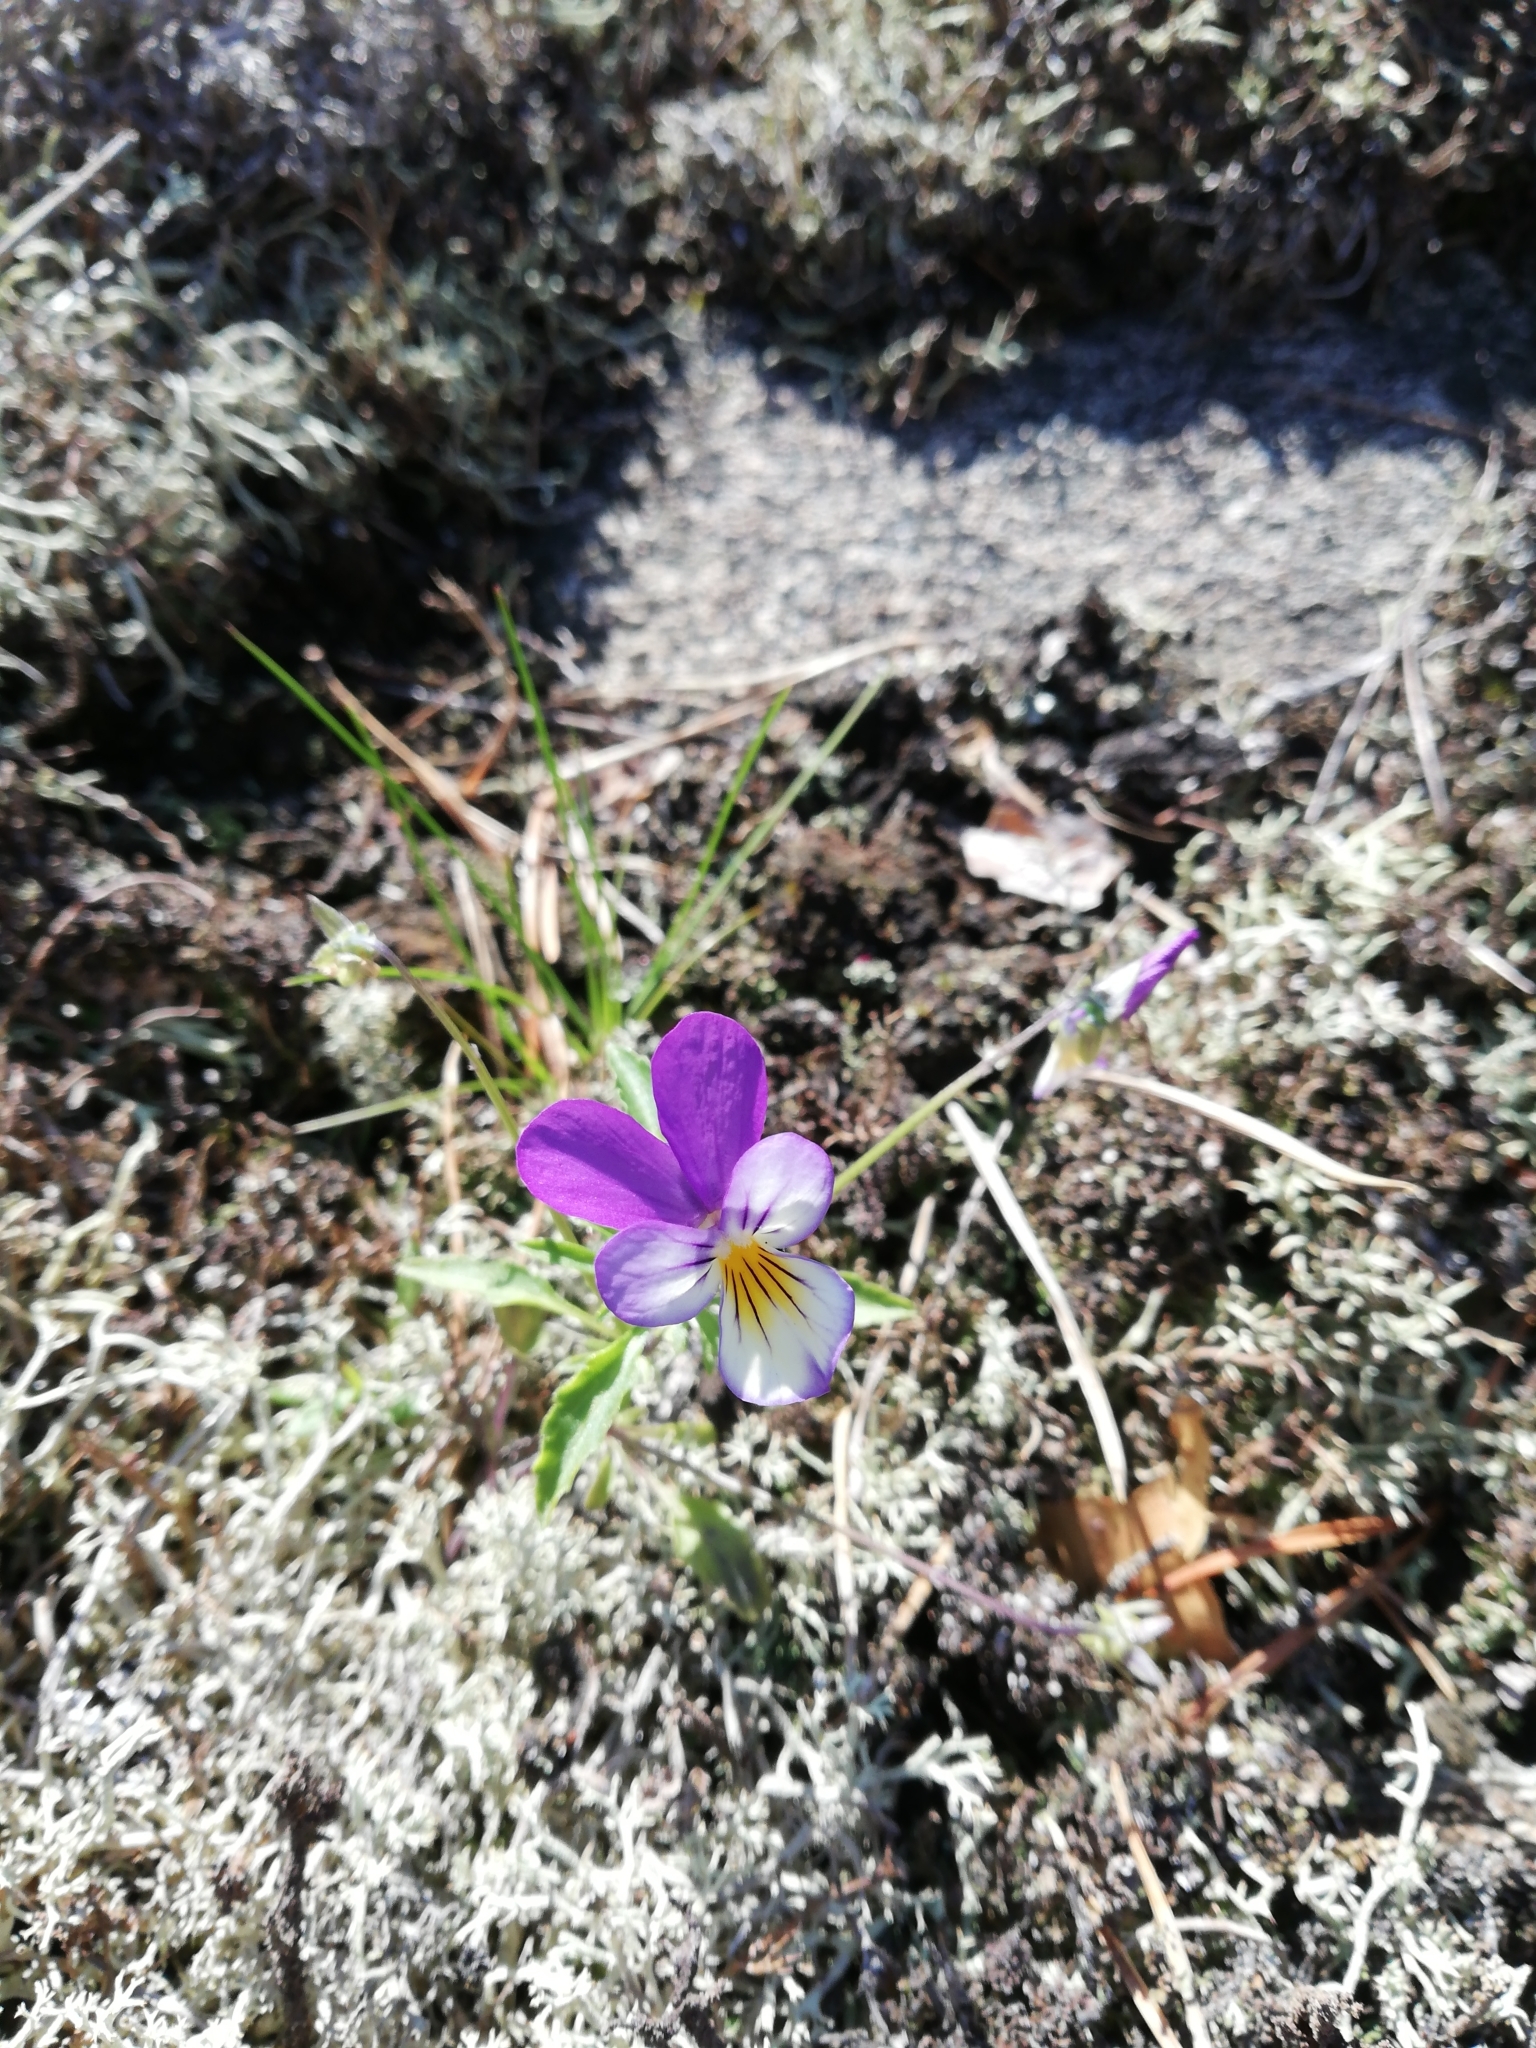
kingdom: Plantae
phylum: Tracheophyta
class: Magnoliopsida
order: Malpighiales
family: Violaceae
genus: Viola
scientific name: Viola tricolor
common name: Pansy
